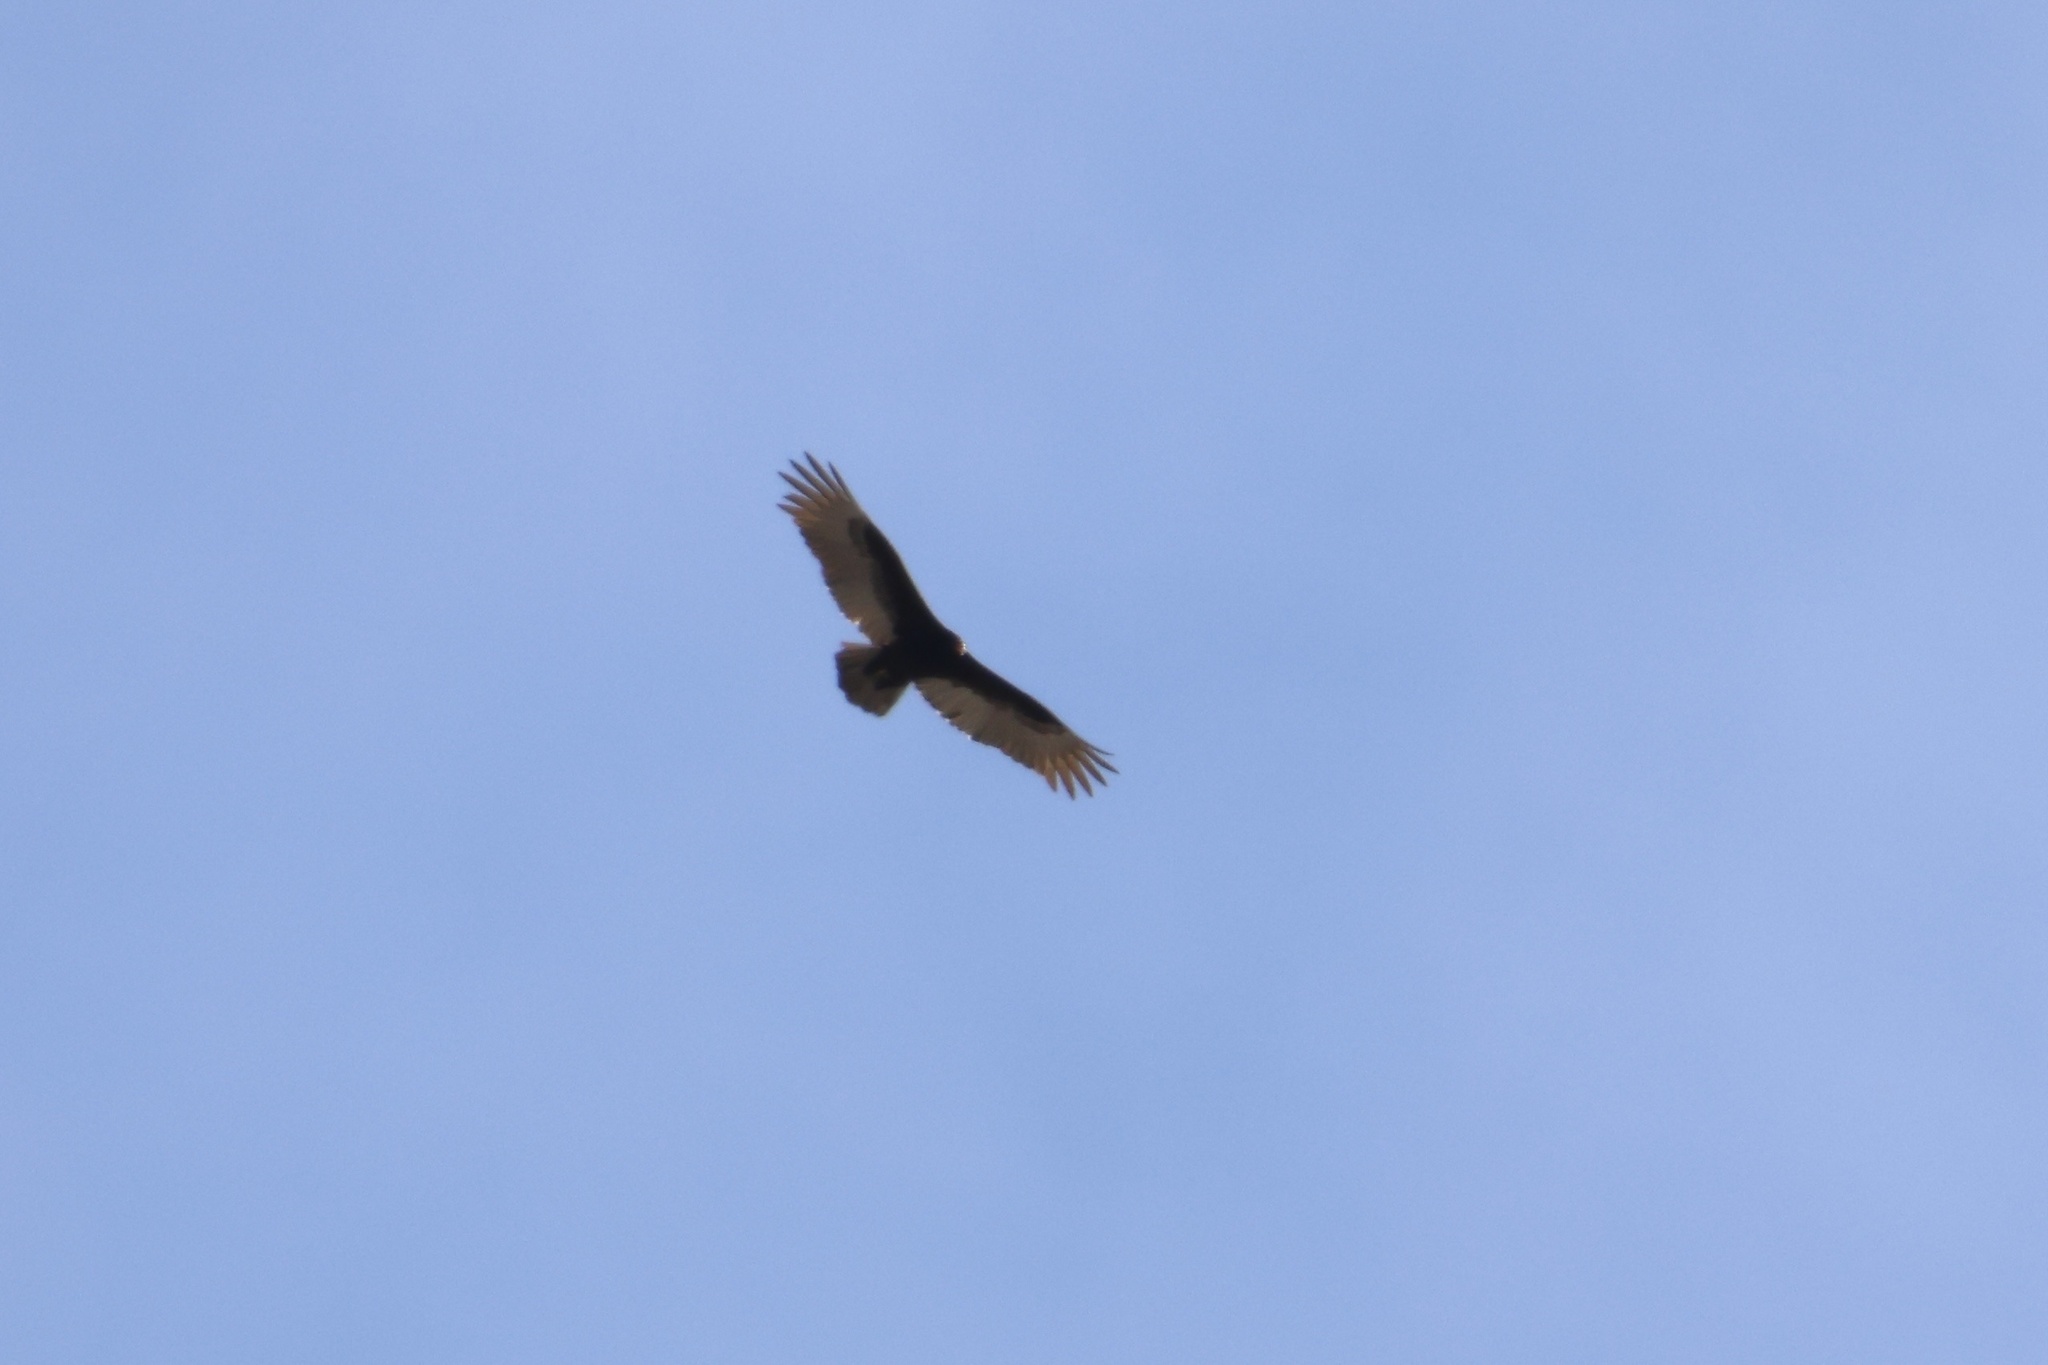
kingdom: Animalia
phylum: Chordata
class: Aves
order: Accipitriformes
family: Cathartidae
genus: Cathartes
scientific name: Cathartes aura
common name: Turkey vulture
